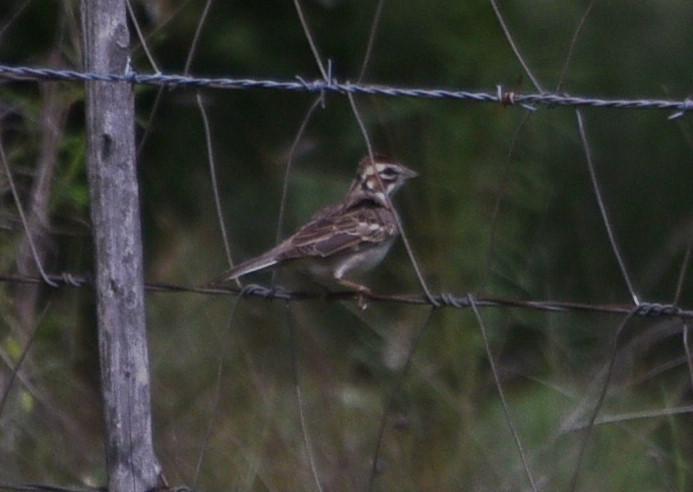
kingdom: Animalia
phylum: Chordata
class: Aves
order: Passeriformes
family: Passerellidae
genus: Chondestes
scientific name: Chondestes grammacus
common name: Lark sparrow
